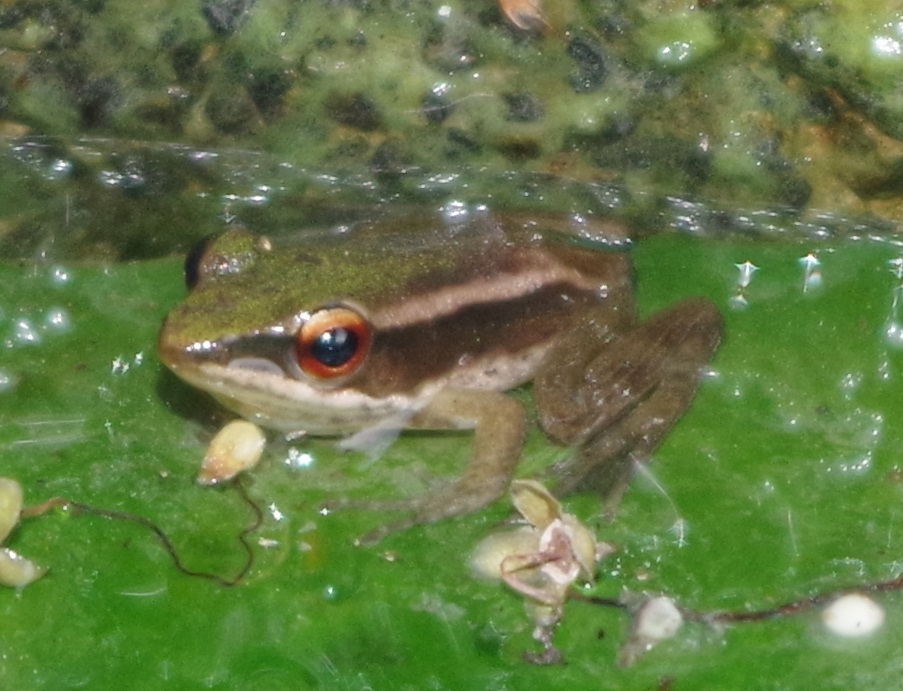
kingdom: Animalia
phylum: Chordata
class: Amphibia
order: Anura
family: Ranidae
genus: Hylarana
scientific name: Hylarana erythraea
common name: Common green frog/green paddy frog/leaf frog
